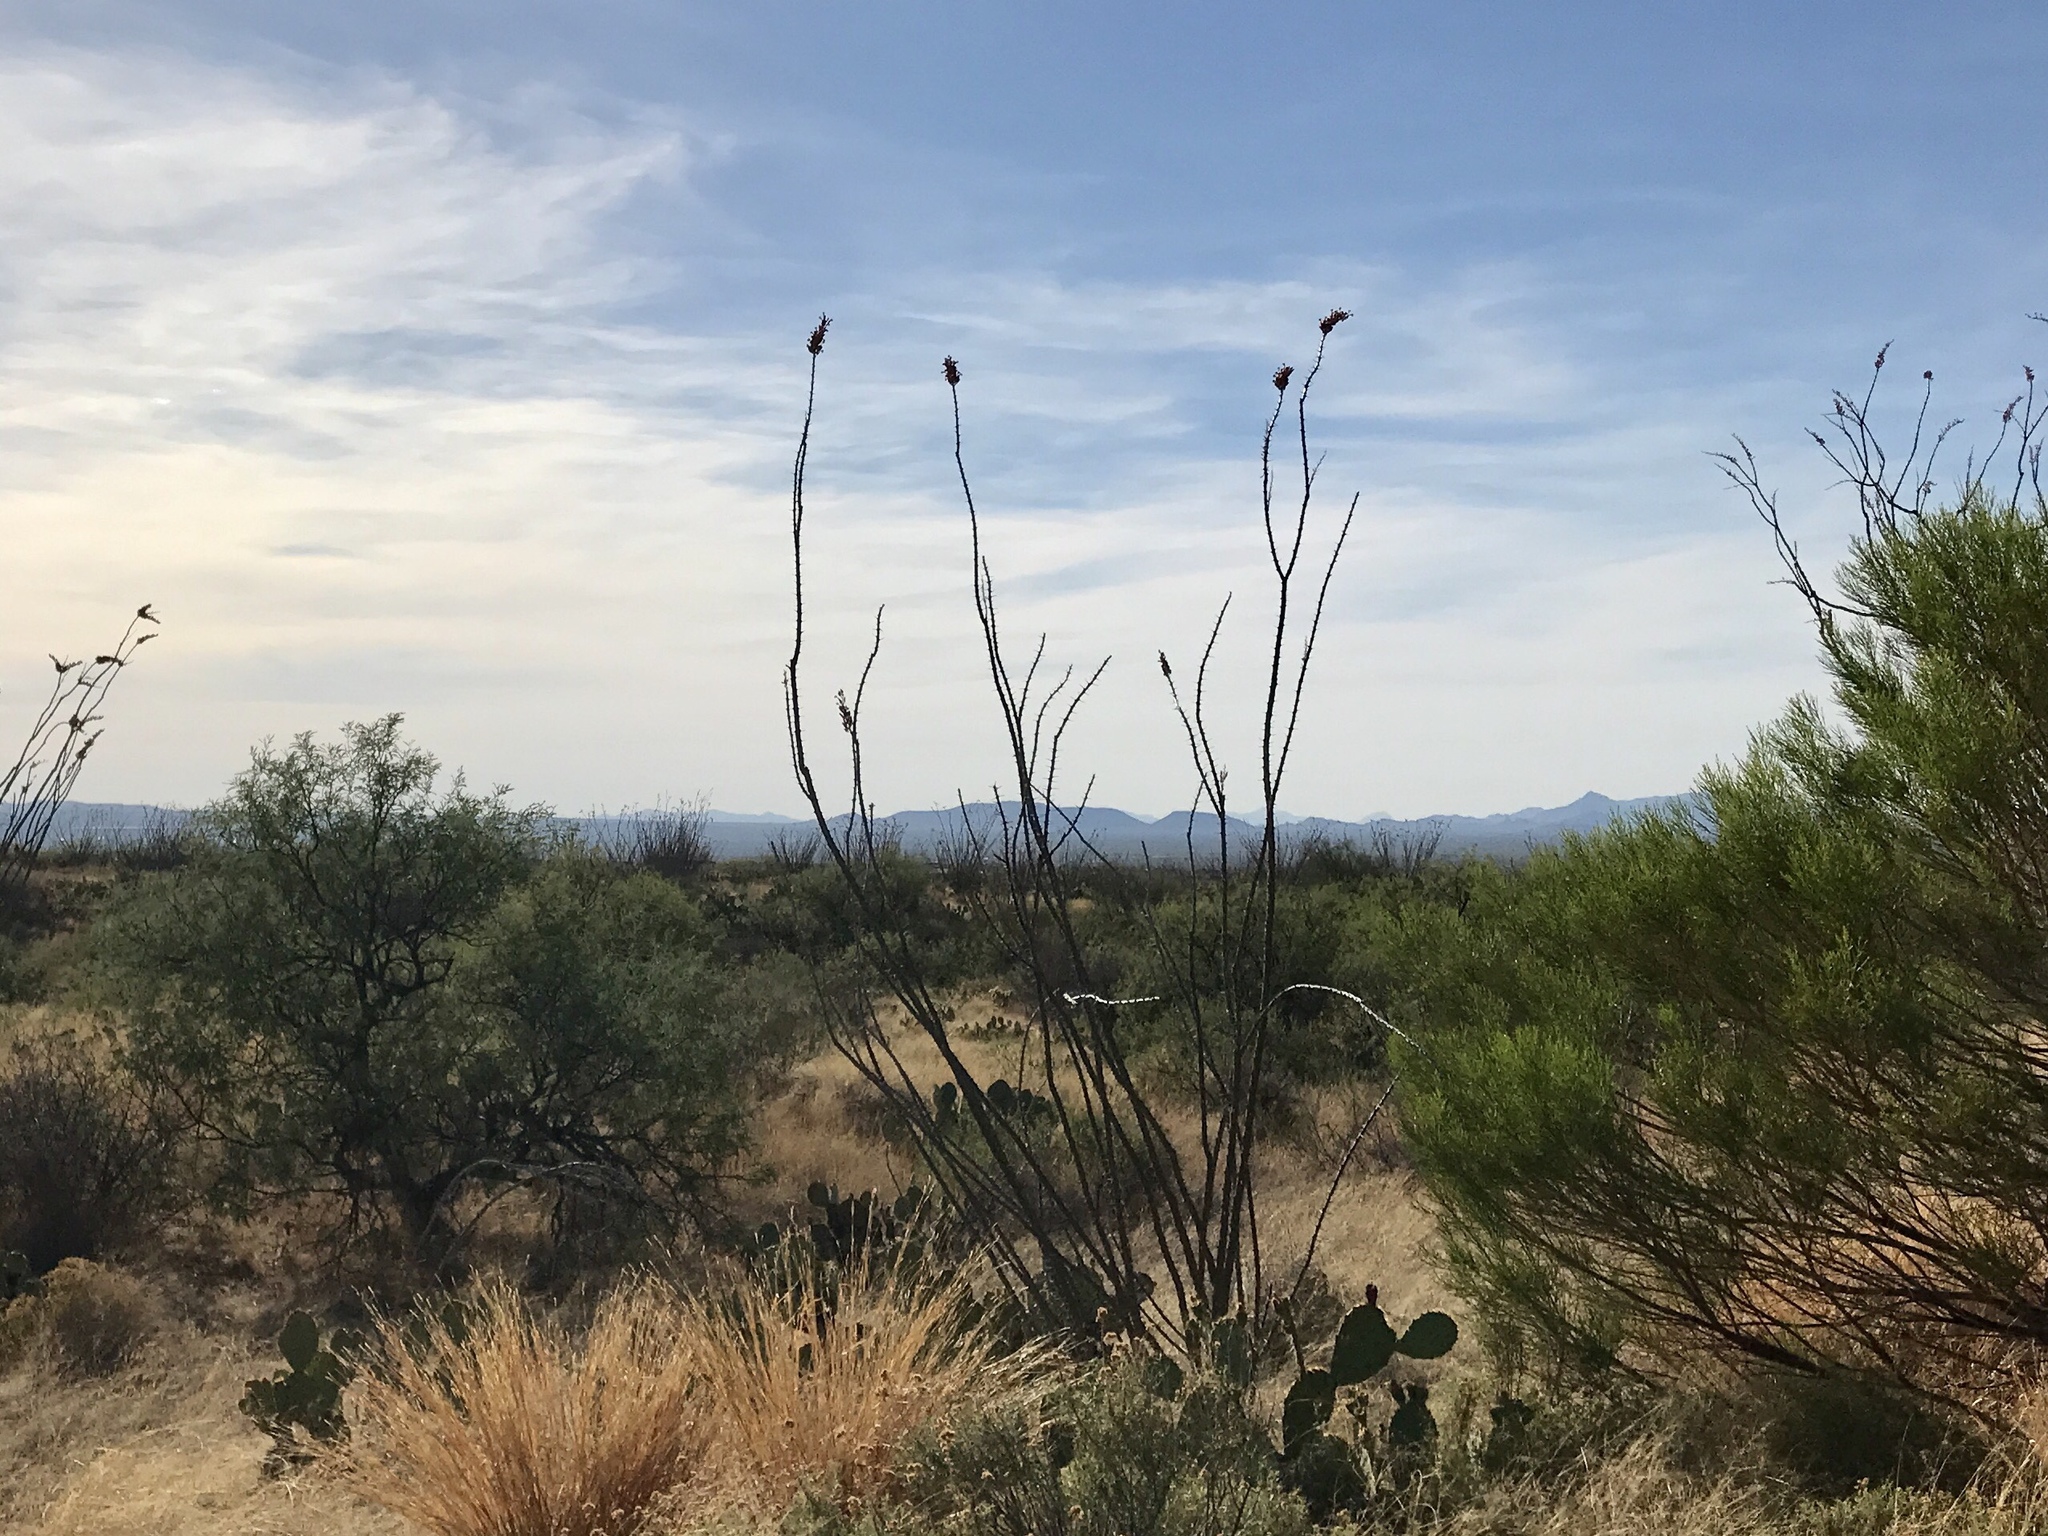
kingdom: Plantae
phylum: Tracheophyta
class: Magnoliopsida
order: Ericales
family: Fouquieriaceae
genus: Fouquieria
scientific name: Fouquieria splendens
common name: Vine-cactus
